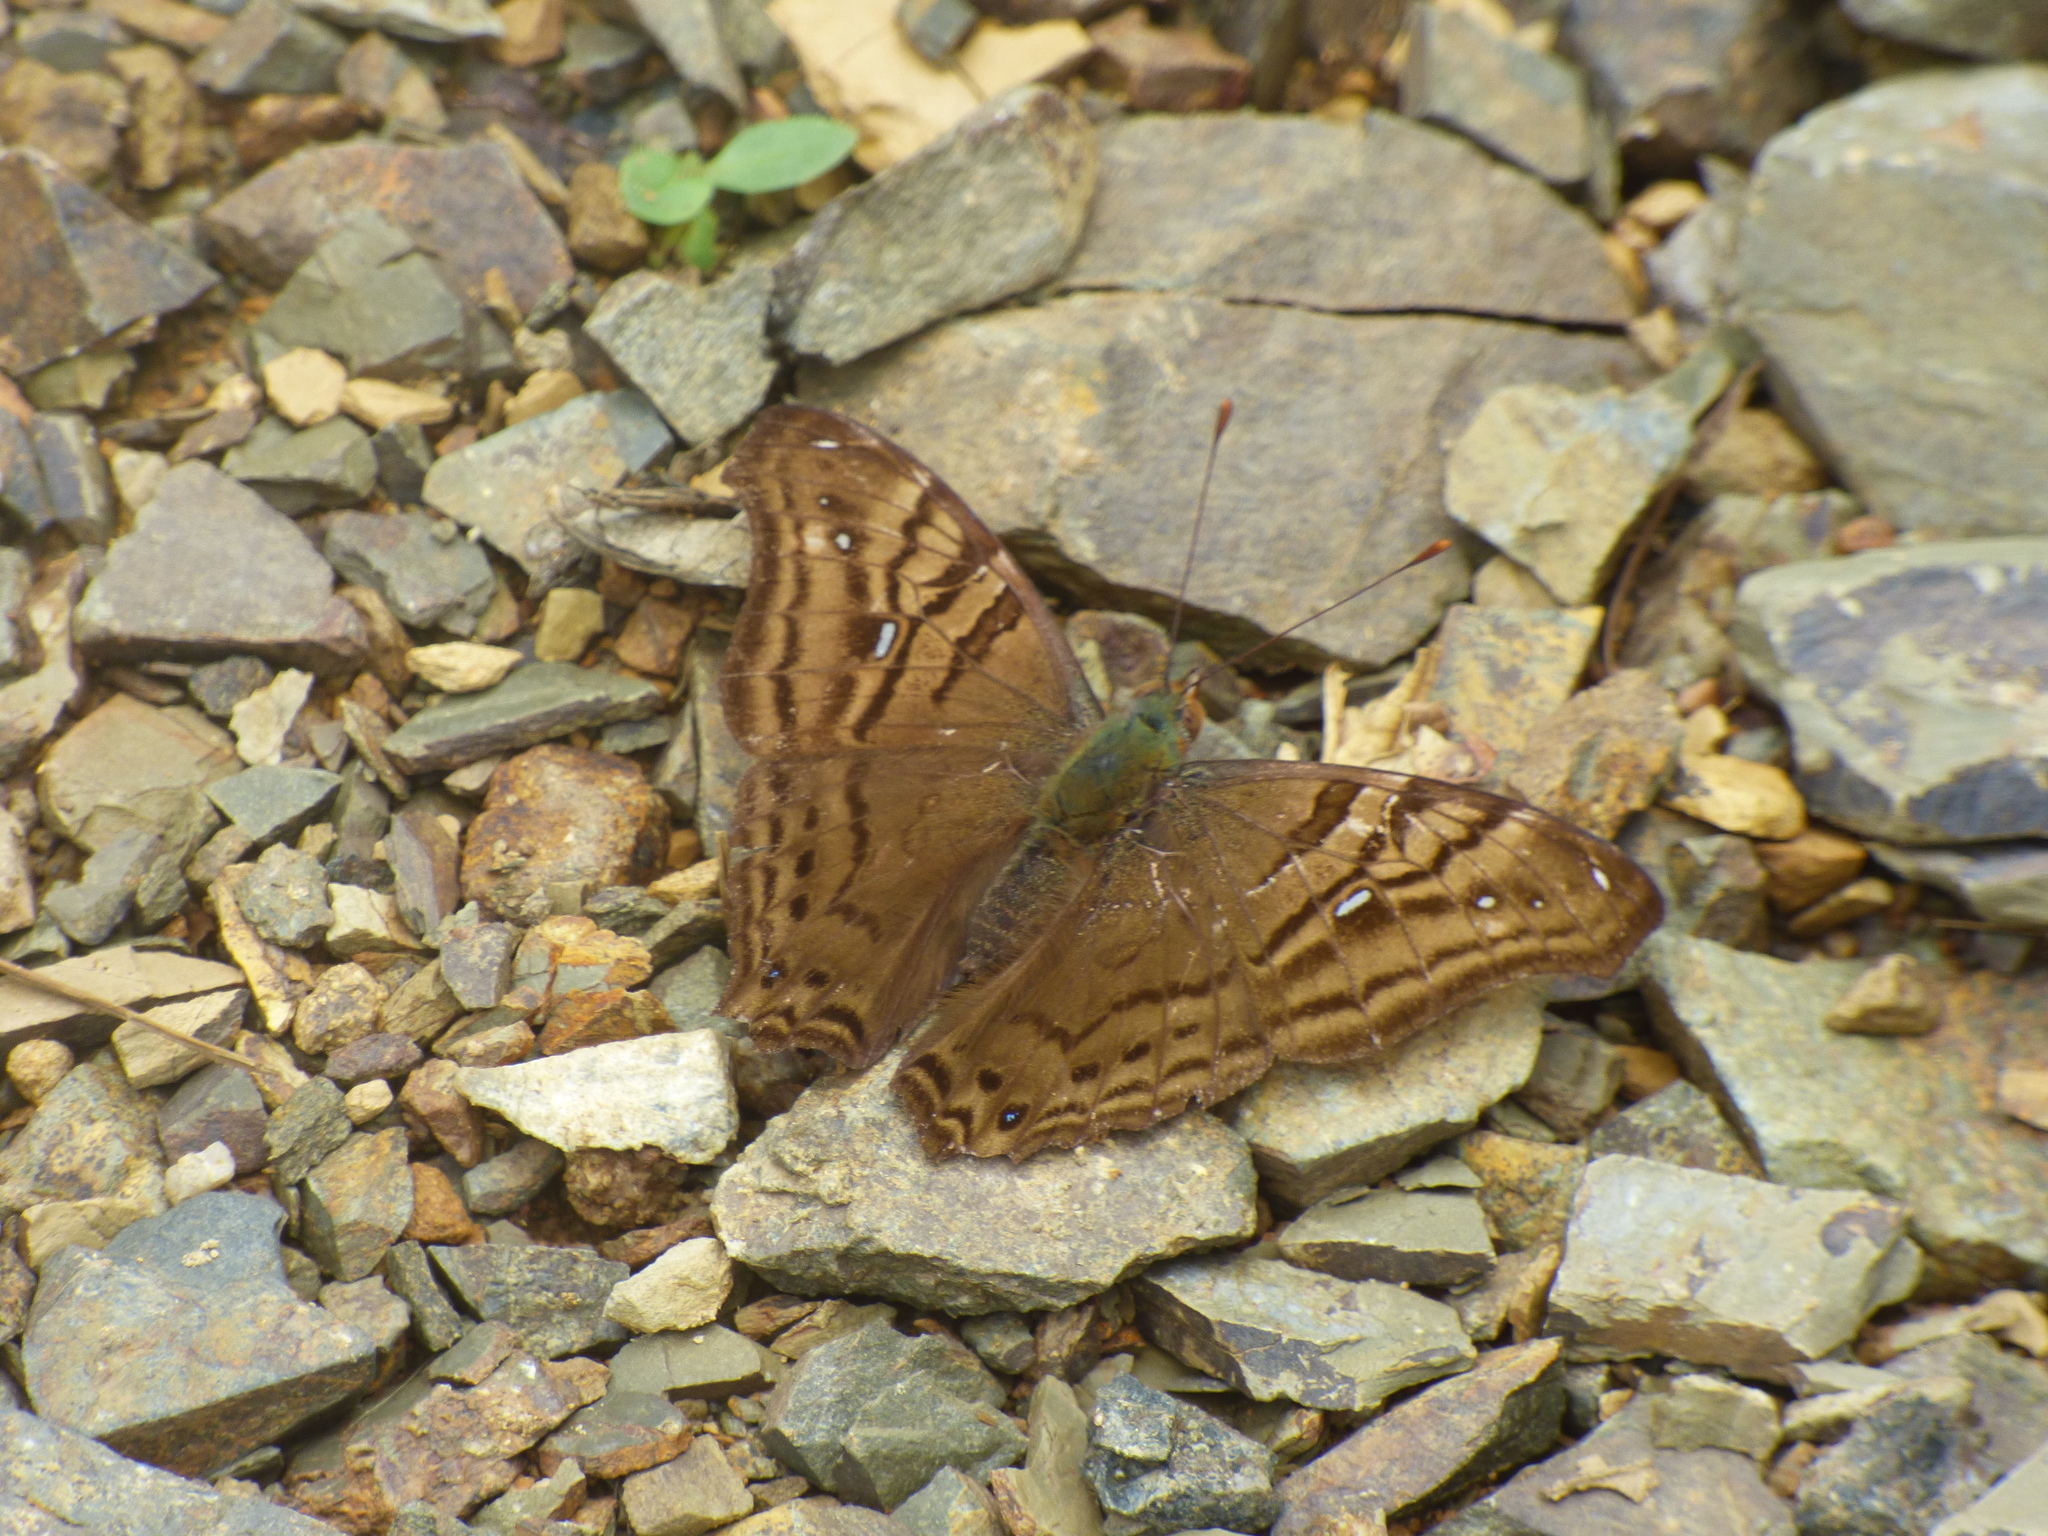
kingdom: Animalia
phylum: Arthropoda
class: Insecta
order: Lepidoptera
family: Nymphalidae
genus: Hypanartia
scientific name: Hypanartia dione
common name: Banded mapwing
